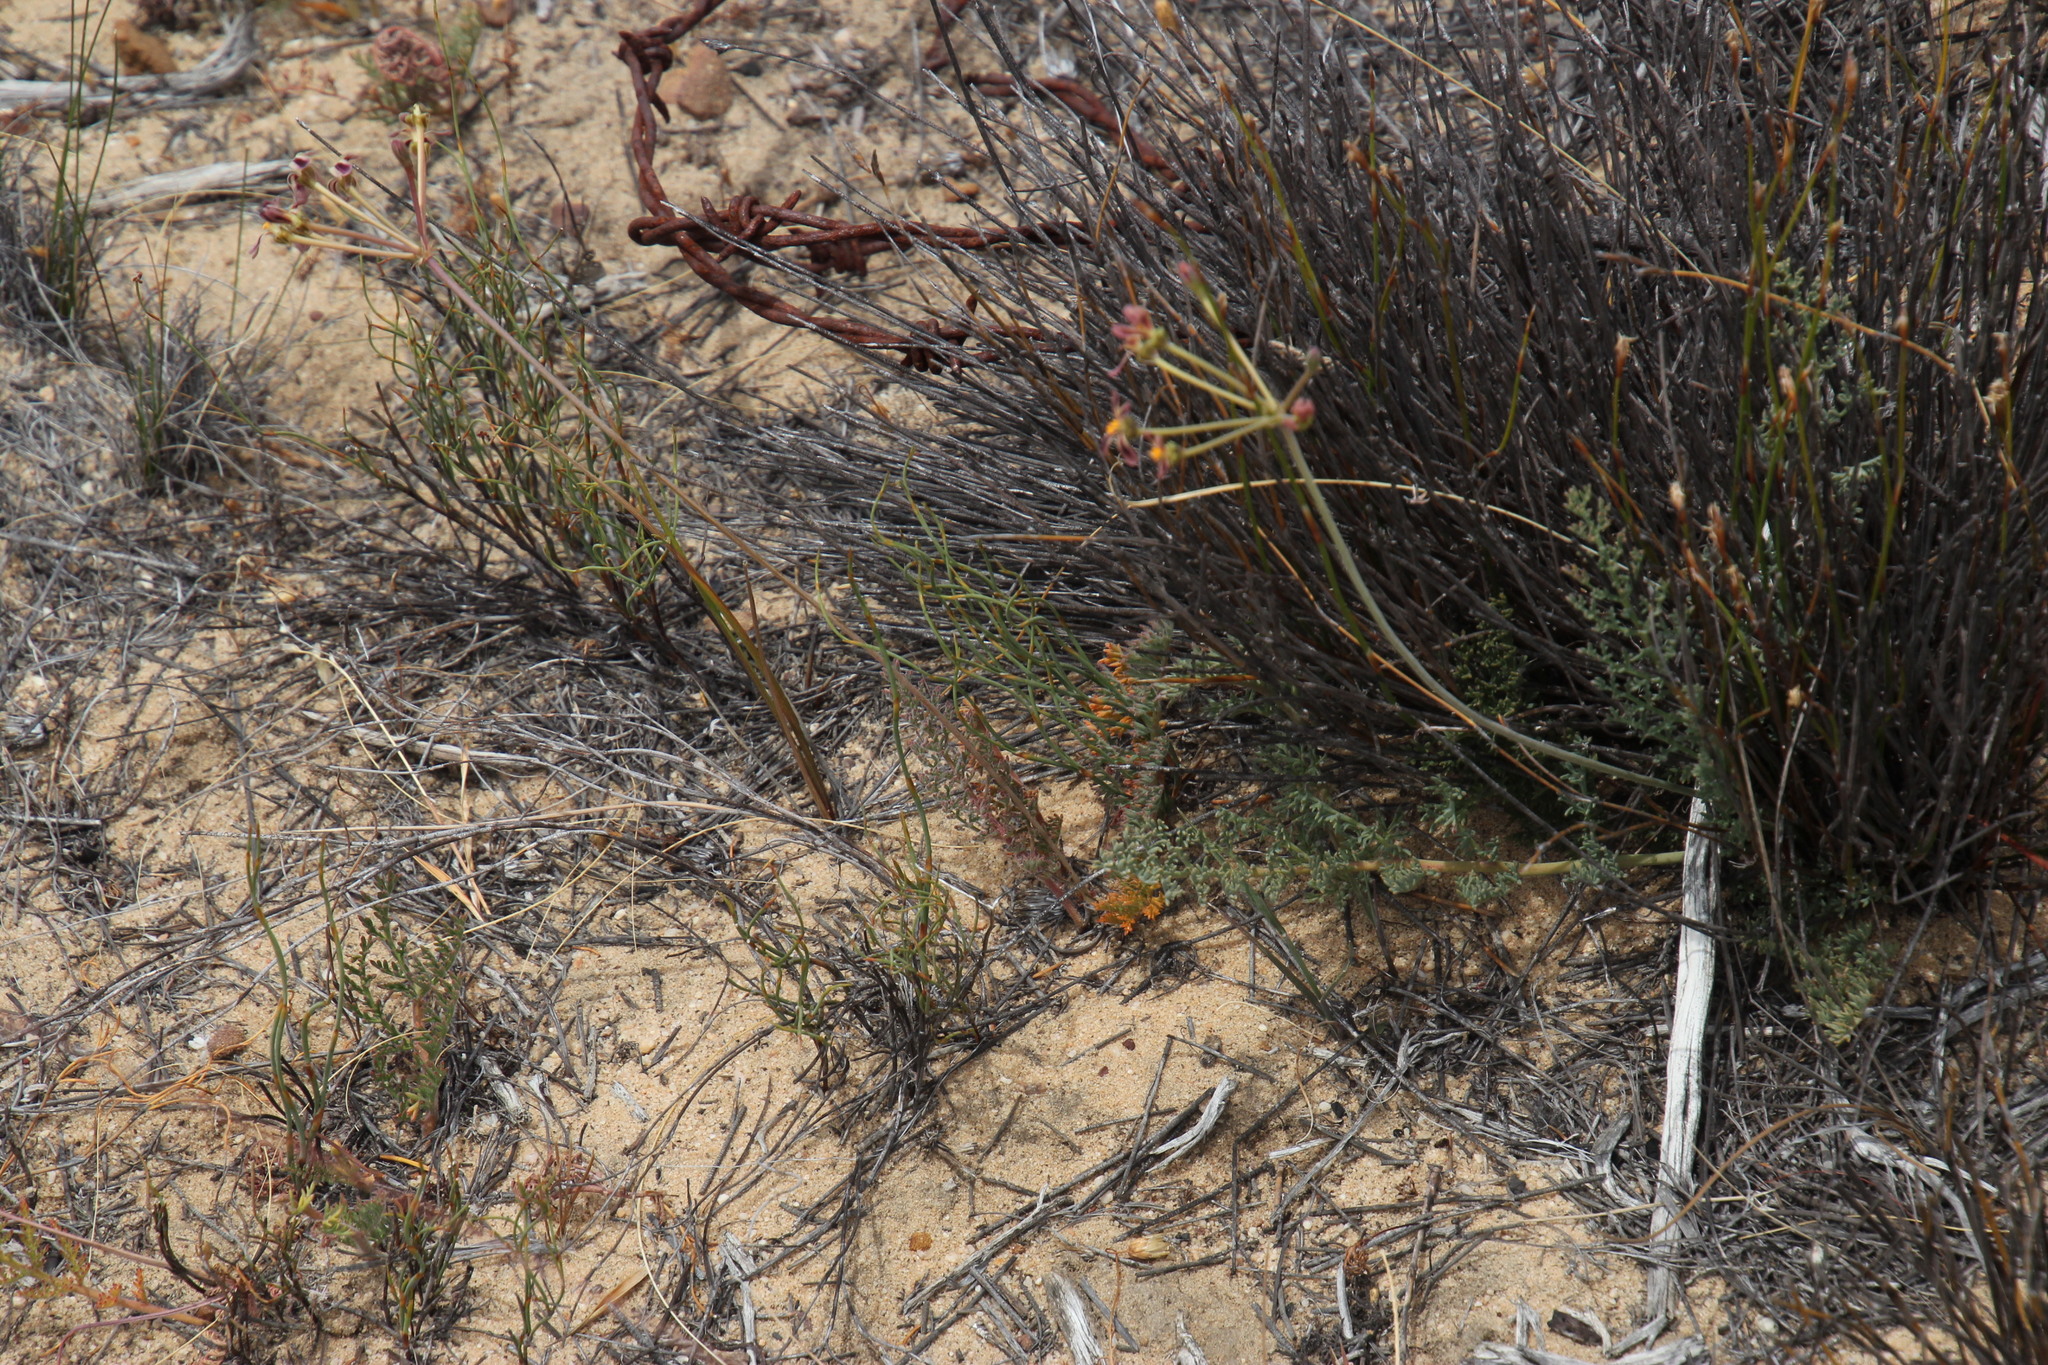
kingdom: Plantae
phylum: Tracheophyta
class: Magnoliopsida
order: Geraniales
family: Geraniaceae
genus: Pelargonium
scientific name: Pelargonium triste
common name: Night-scent pelargonium
